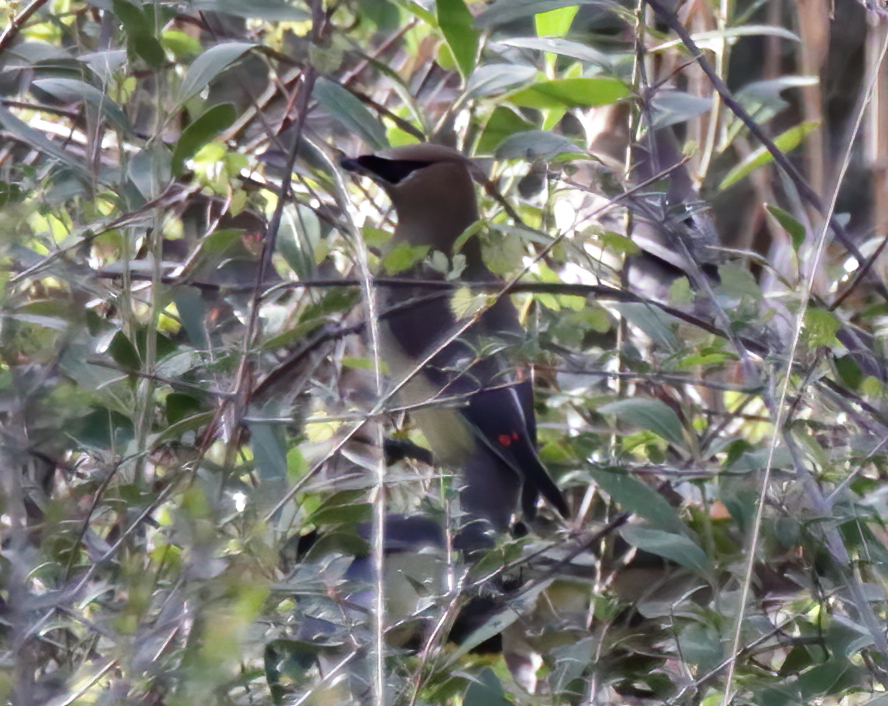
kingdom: Animalia
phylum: Chordata
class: Aves
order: Passeriformes
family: Bombycillidae
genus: Bombycilla
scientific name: Bombycilla cedrorum
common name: Cedar waxwing
